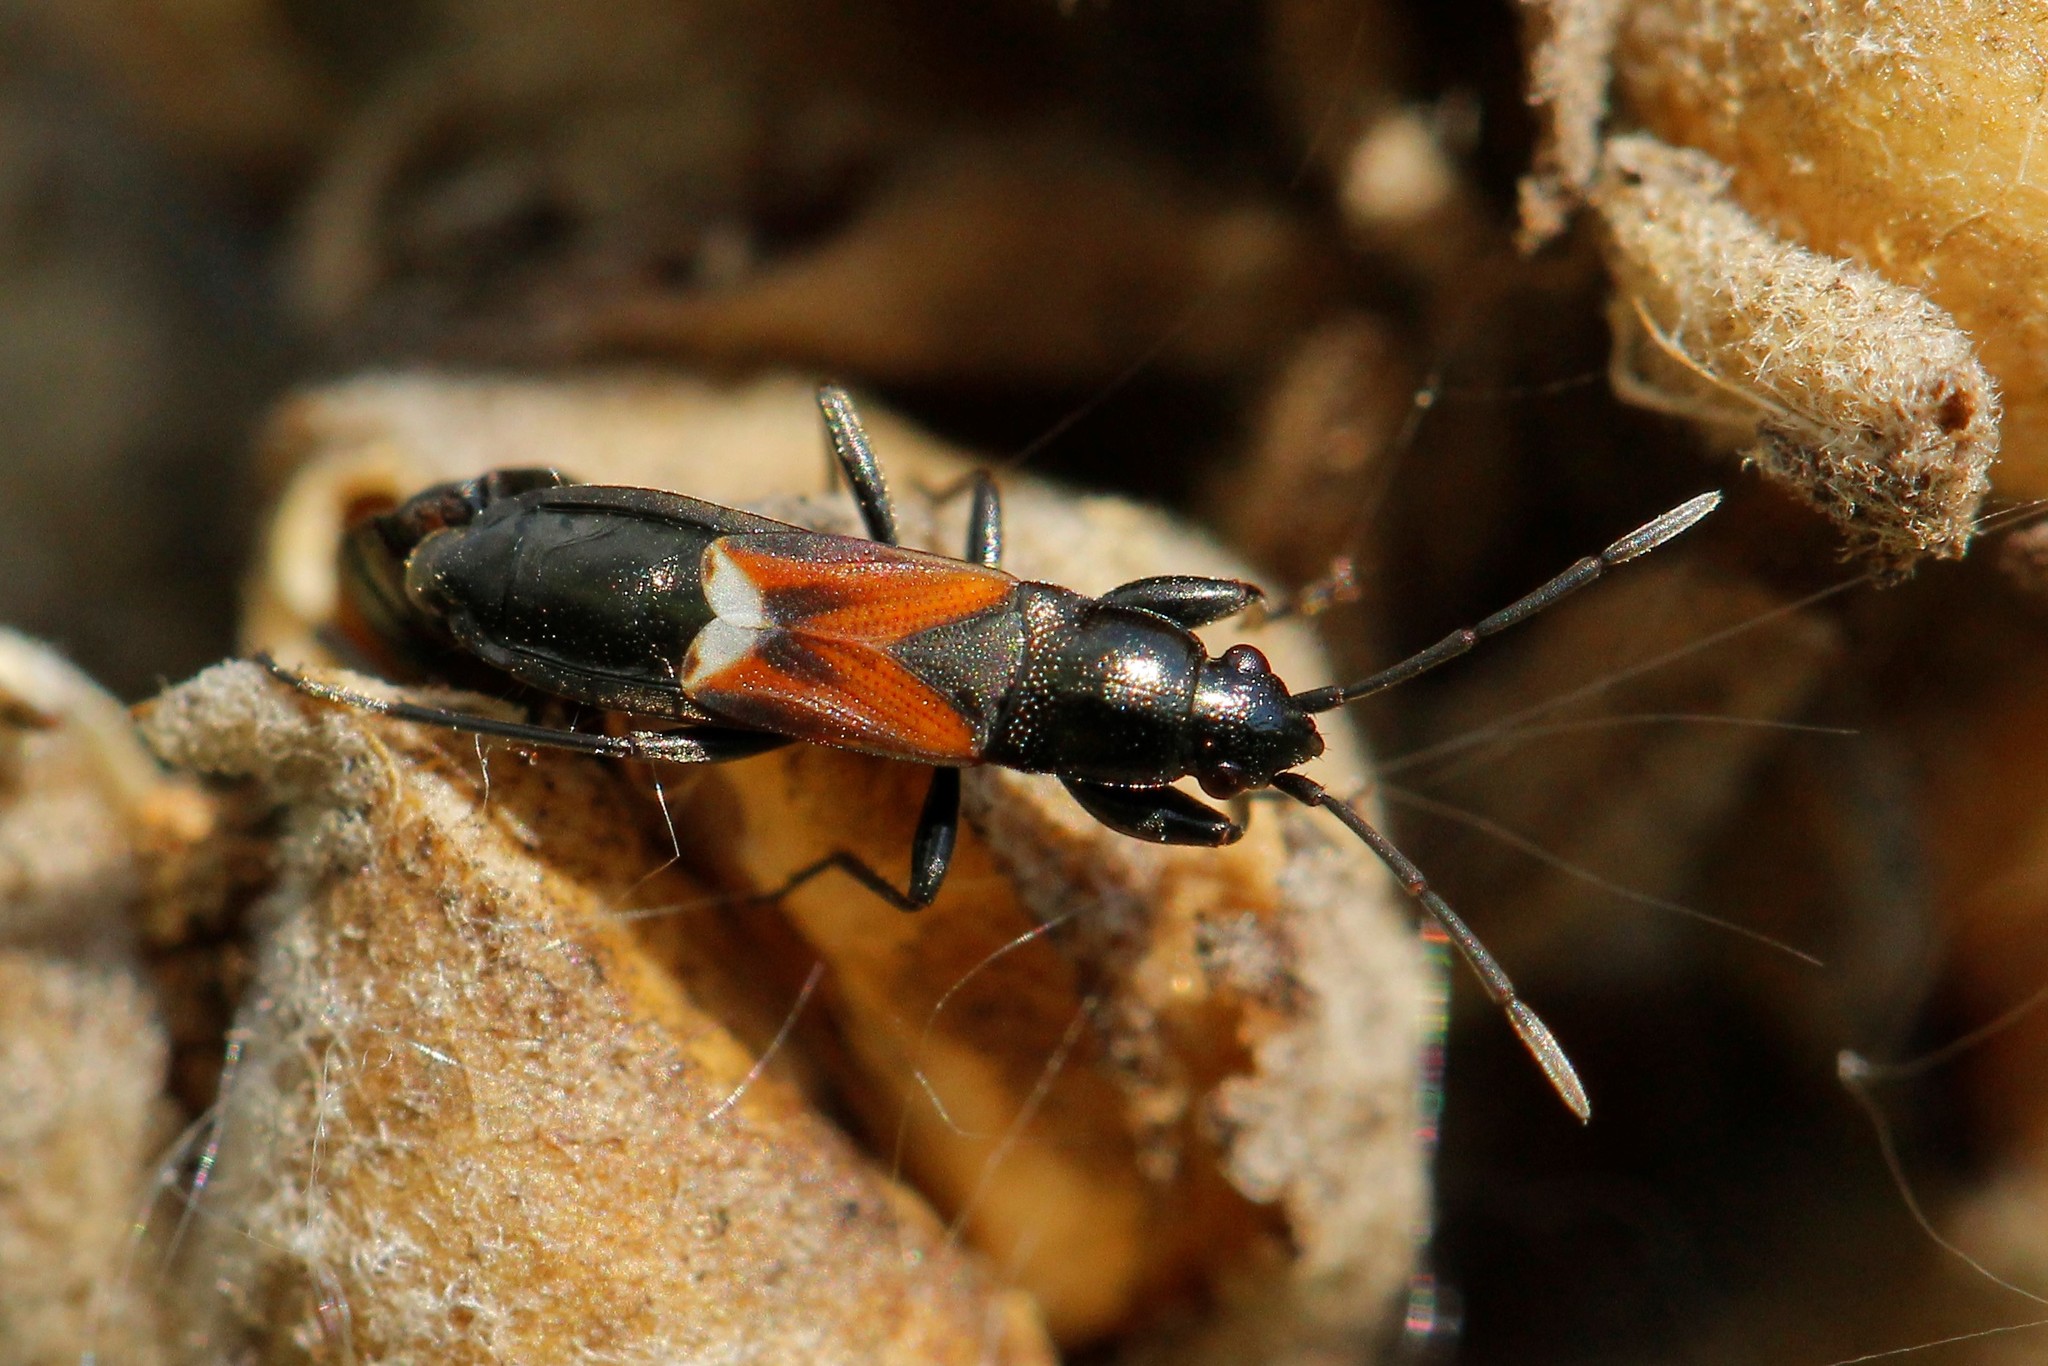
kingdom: Animalia
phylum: Arthropoda
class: Insecta
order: Hemiptera
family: Rhyparochromidae
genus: Pterotmetus
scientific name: Pterotmetus staphyliniformis
